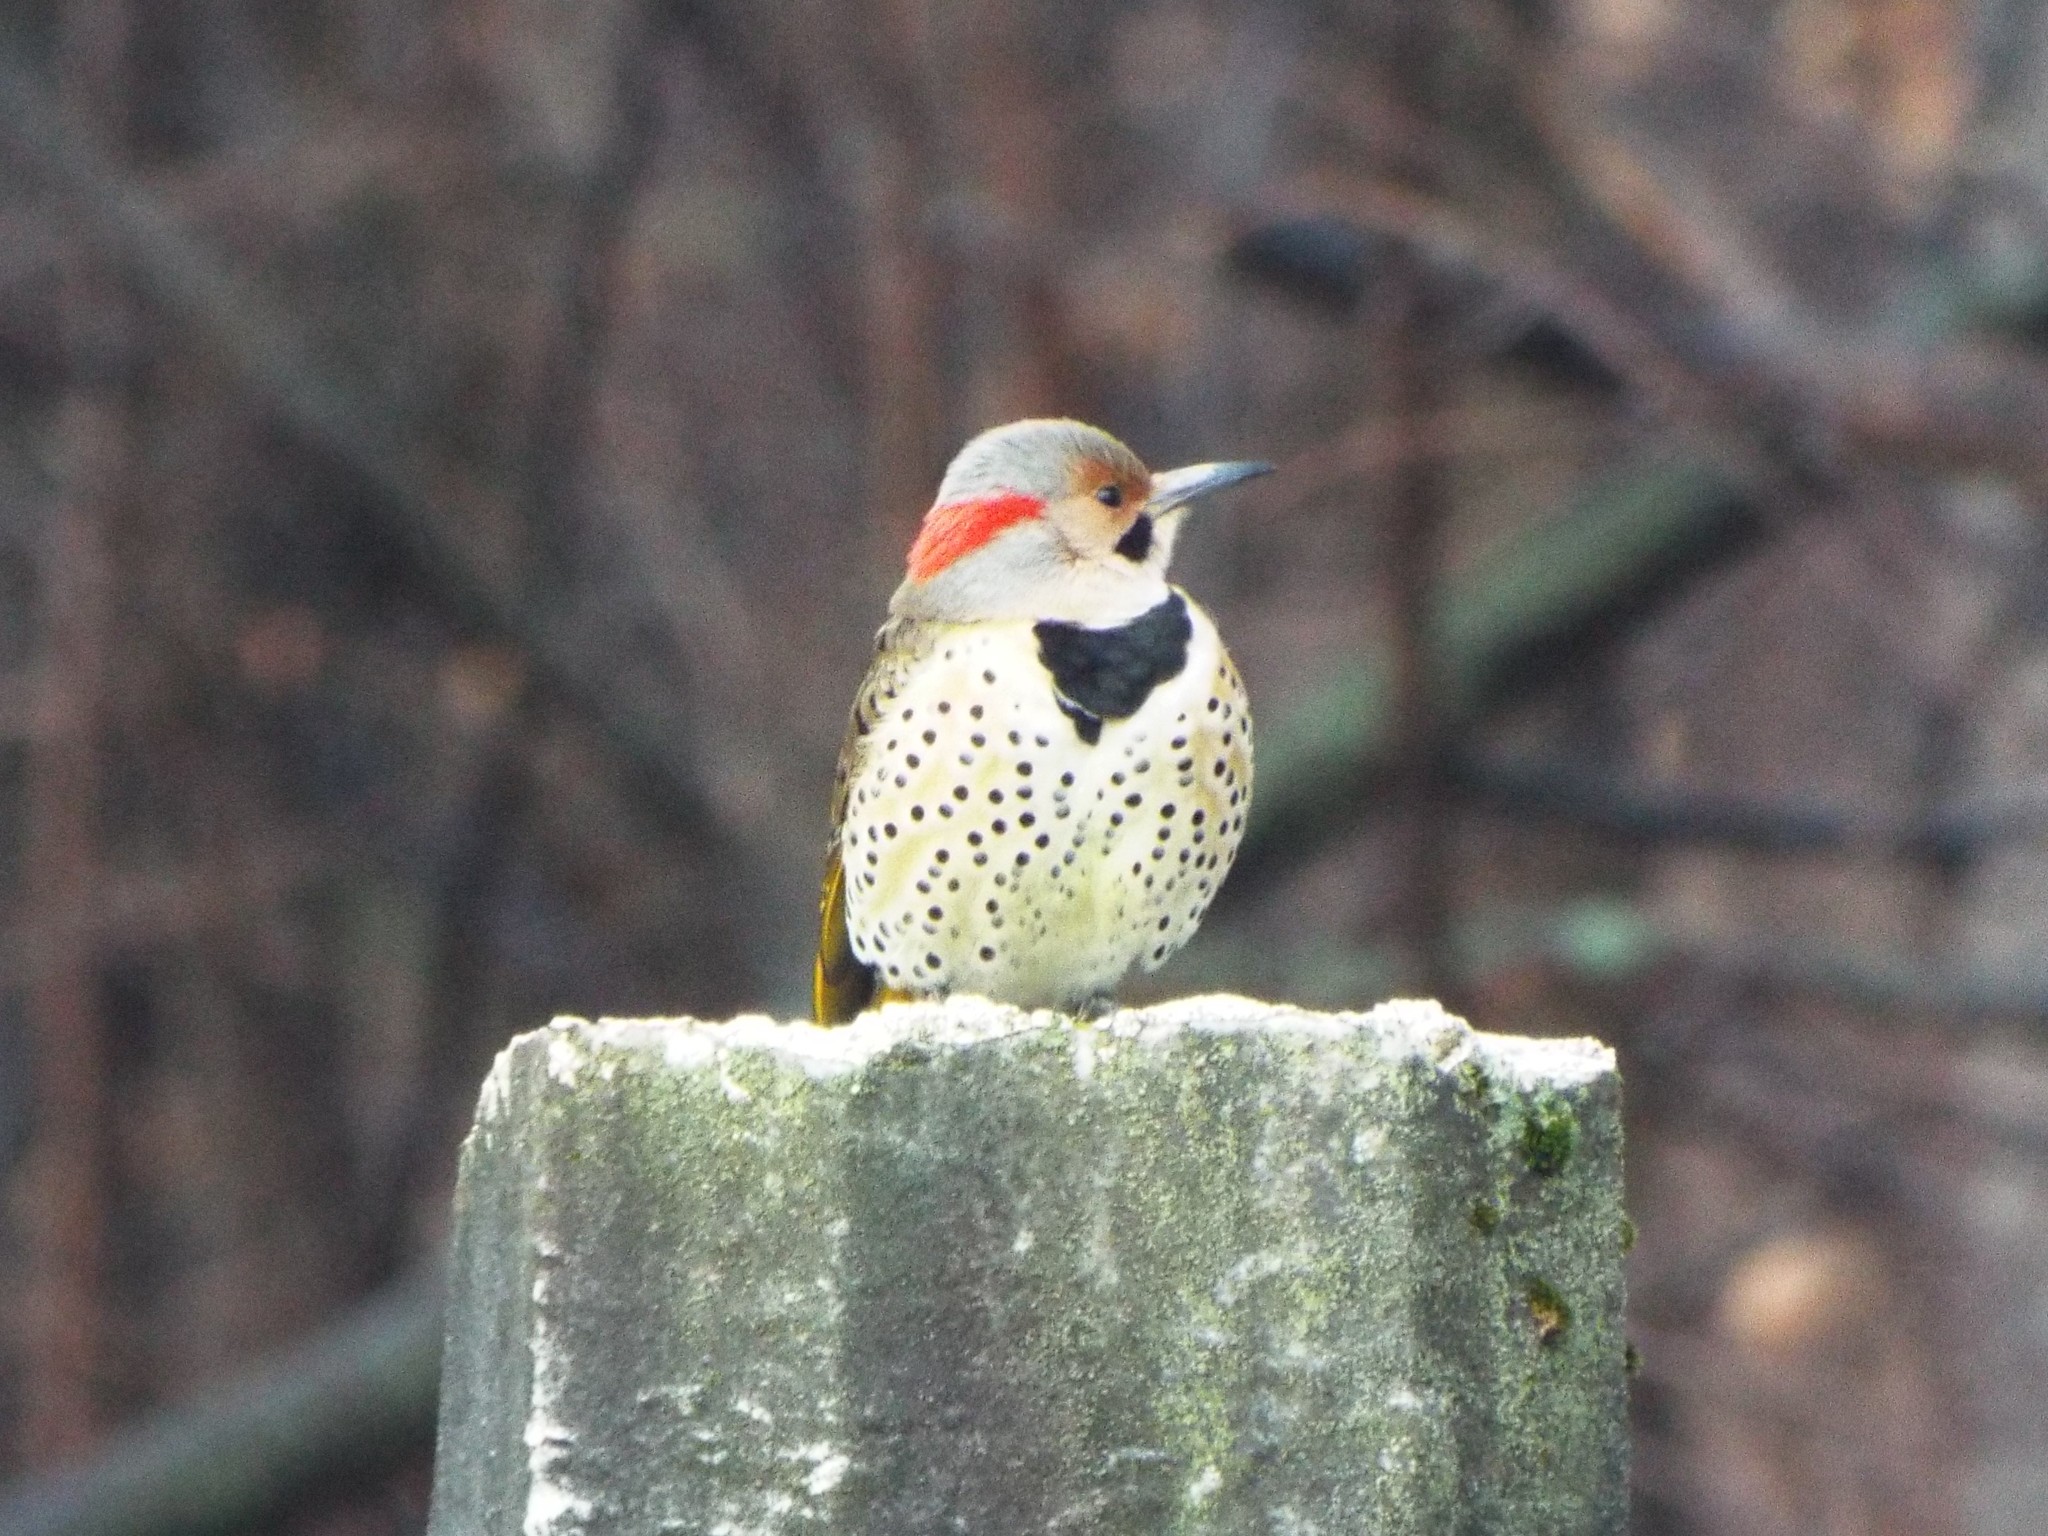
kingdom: Animalia
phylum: Chordata
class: Aves
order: Piciformes
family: Picidae
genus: Colaptes
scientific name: Colaptes auratus
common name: Northern flicker
